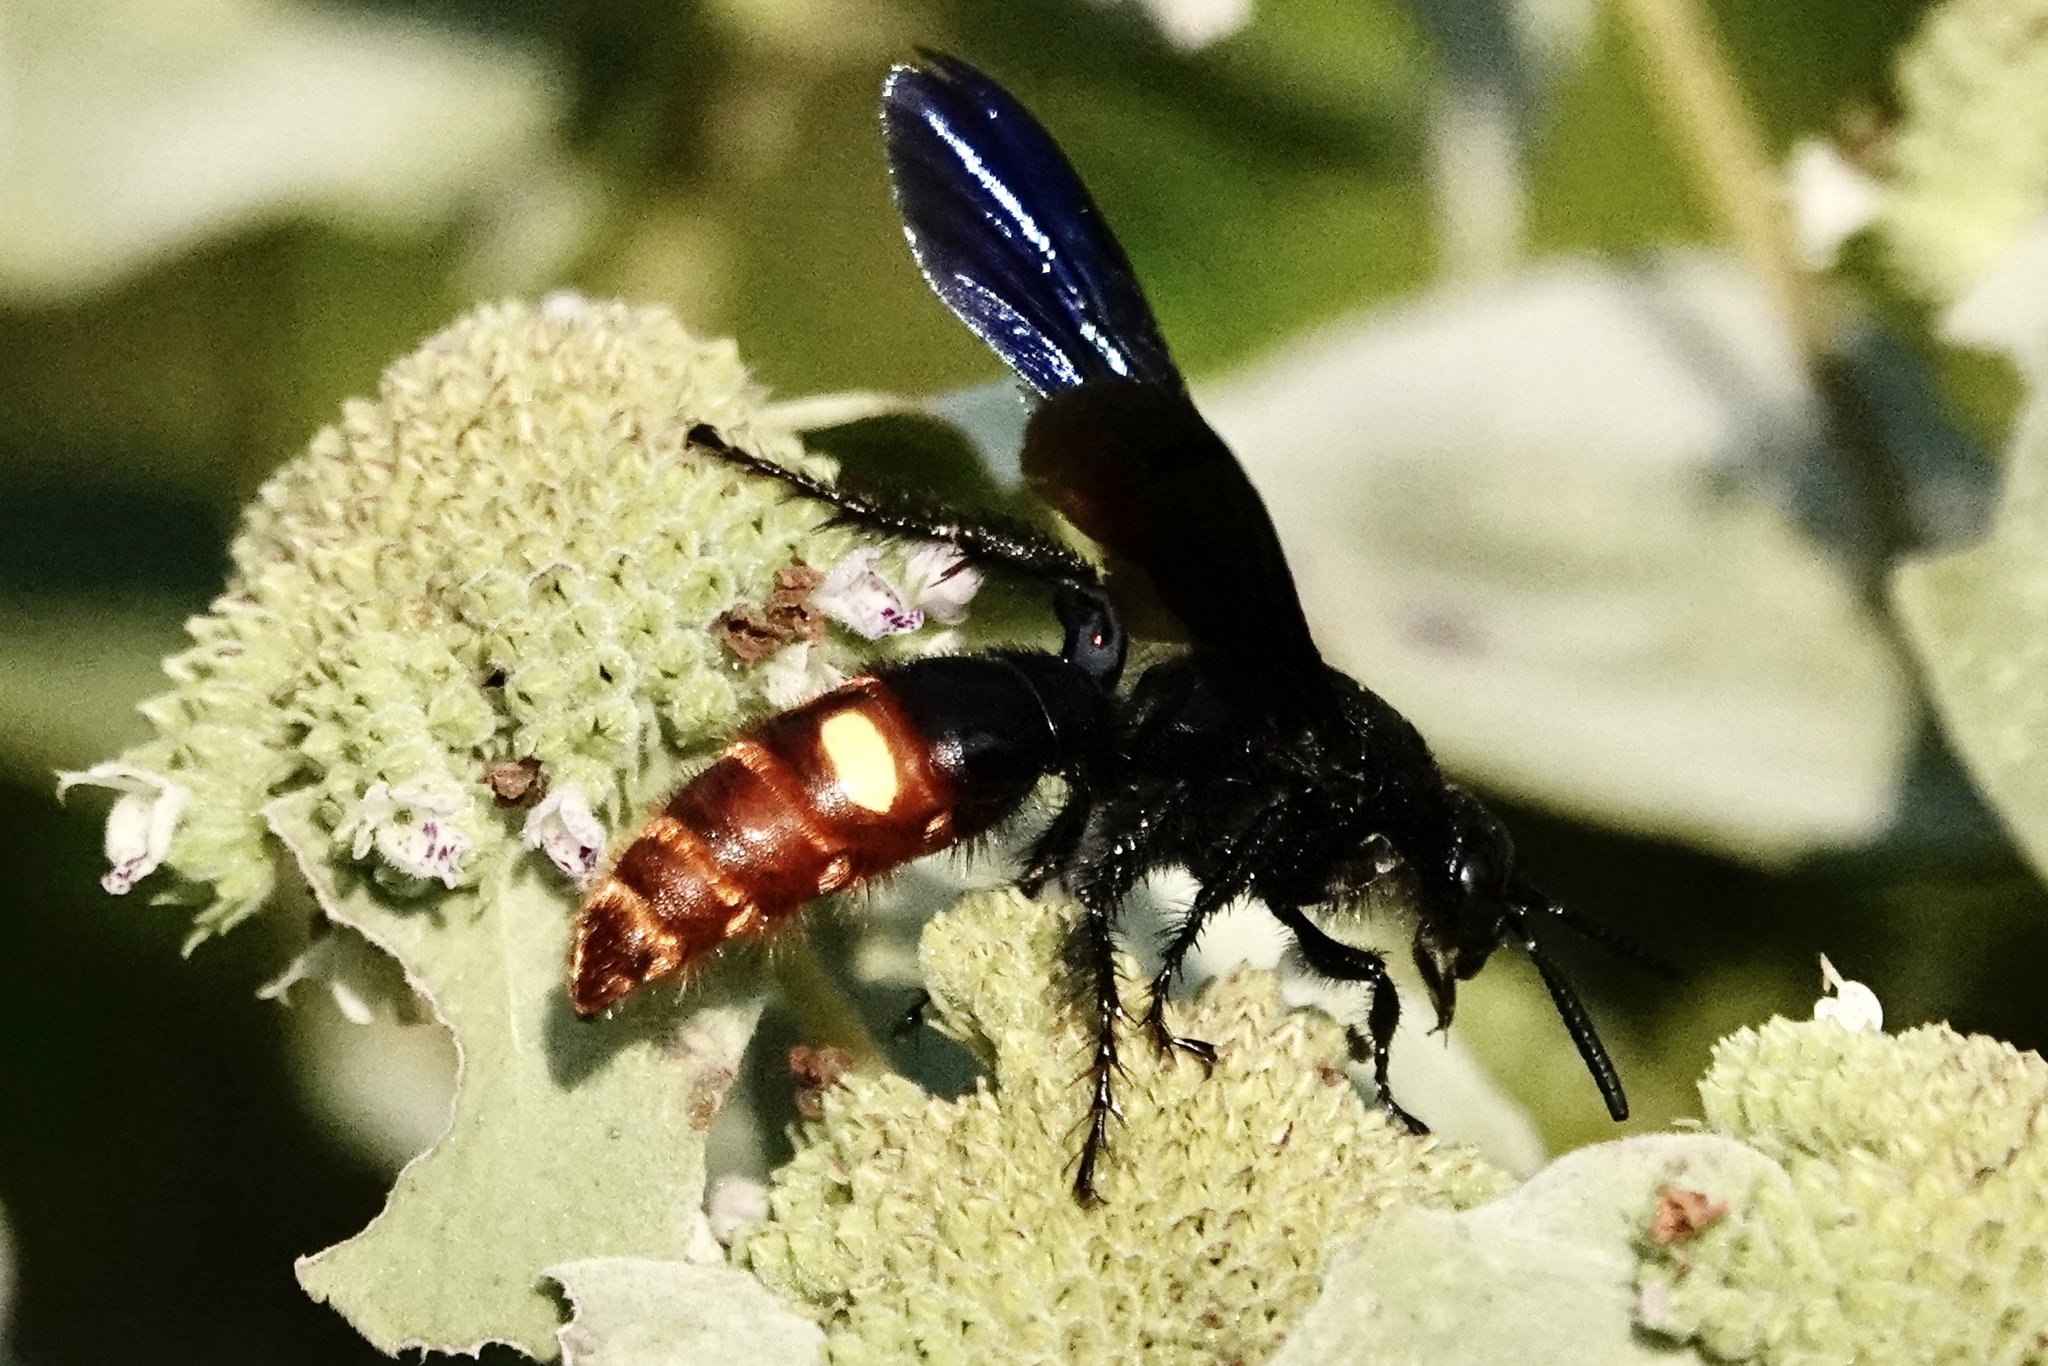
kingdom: Animalia
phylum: Arthropoda
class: Insecta
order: Hymenoptera
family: Scoliidae
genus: Scolia
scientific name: Scolia dubia
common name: Blue-winged scoliid wasp
